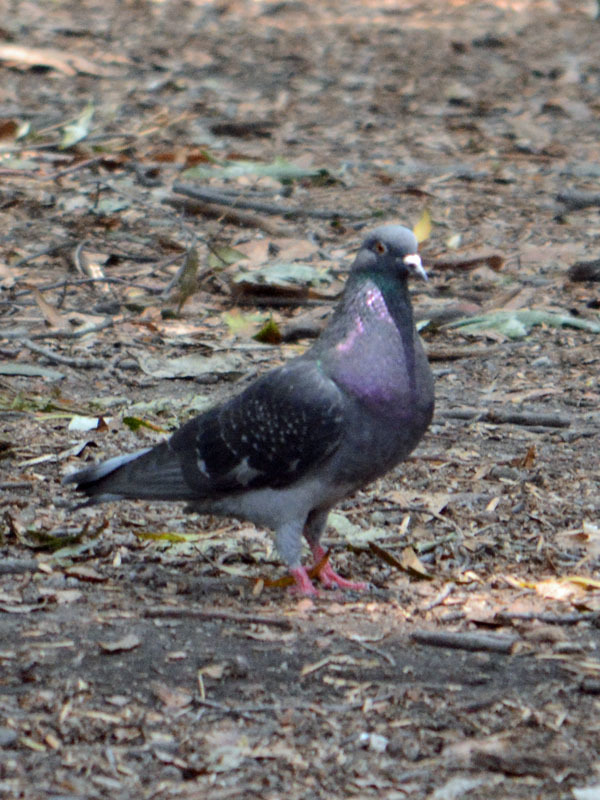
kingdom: Animalia
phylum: Chordata
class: Aves
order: Columbiformes
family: Columbidae
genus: Columba
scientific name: Columba livia
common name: Rock pigeon
